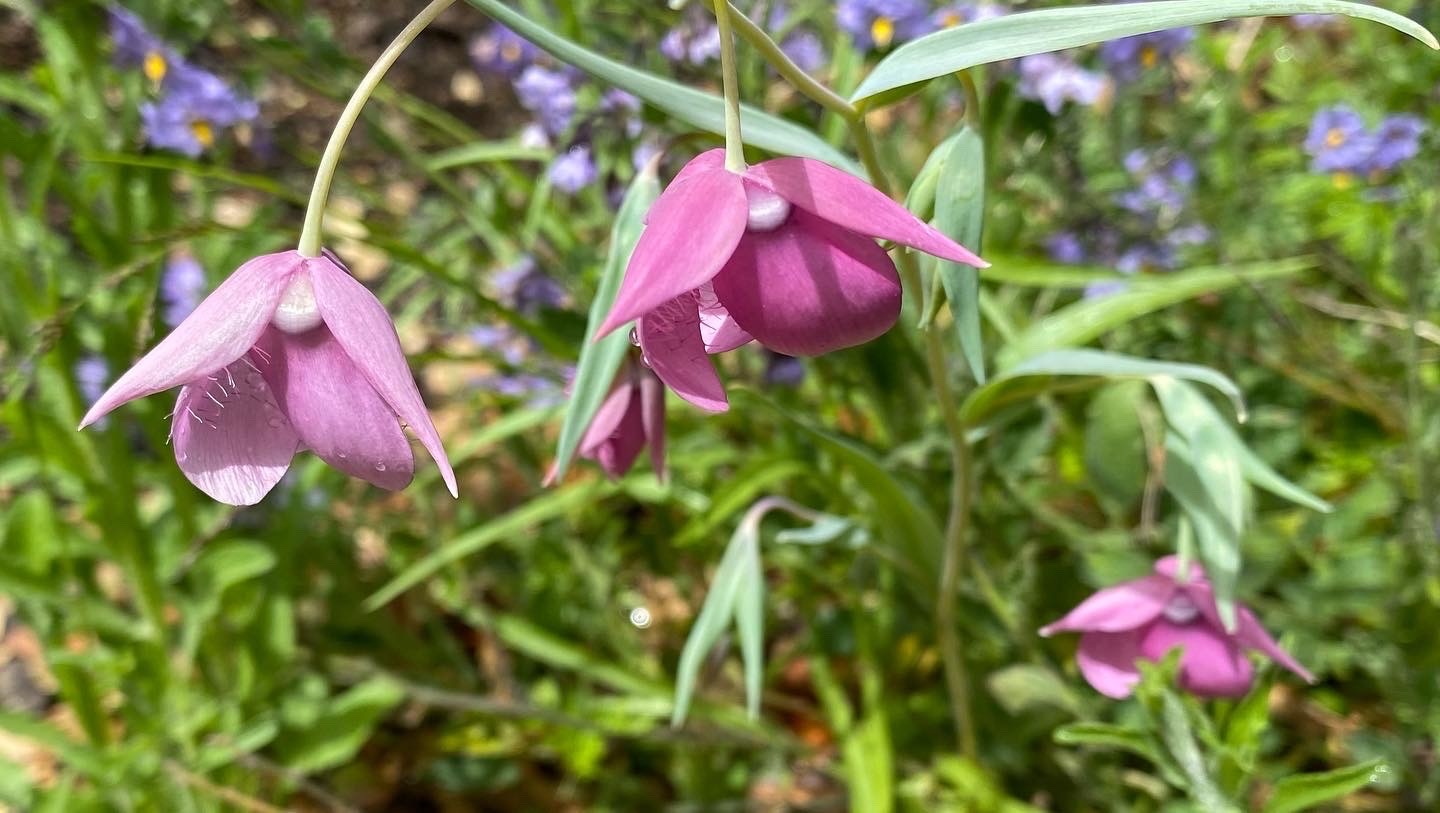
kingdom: Plantae
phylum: Tracheophyta
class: Liliopsida
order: Liliales
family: Liliaceae
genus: Calochortus
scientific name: Calochortus amoenus
